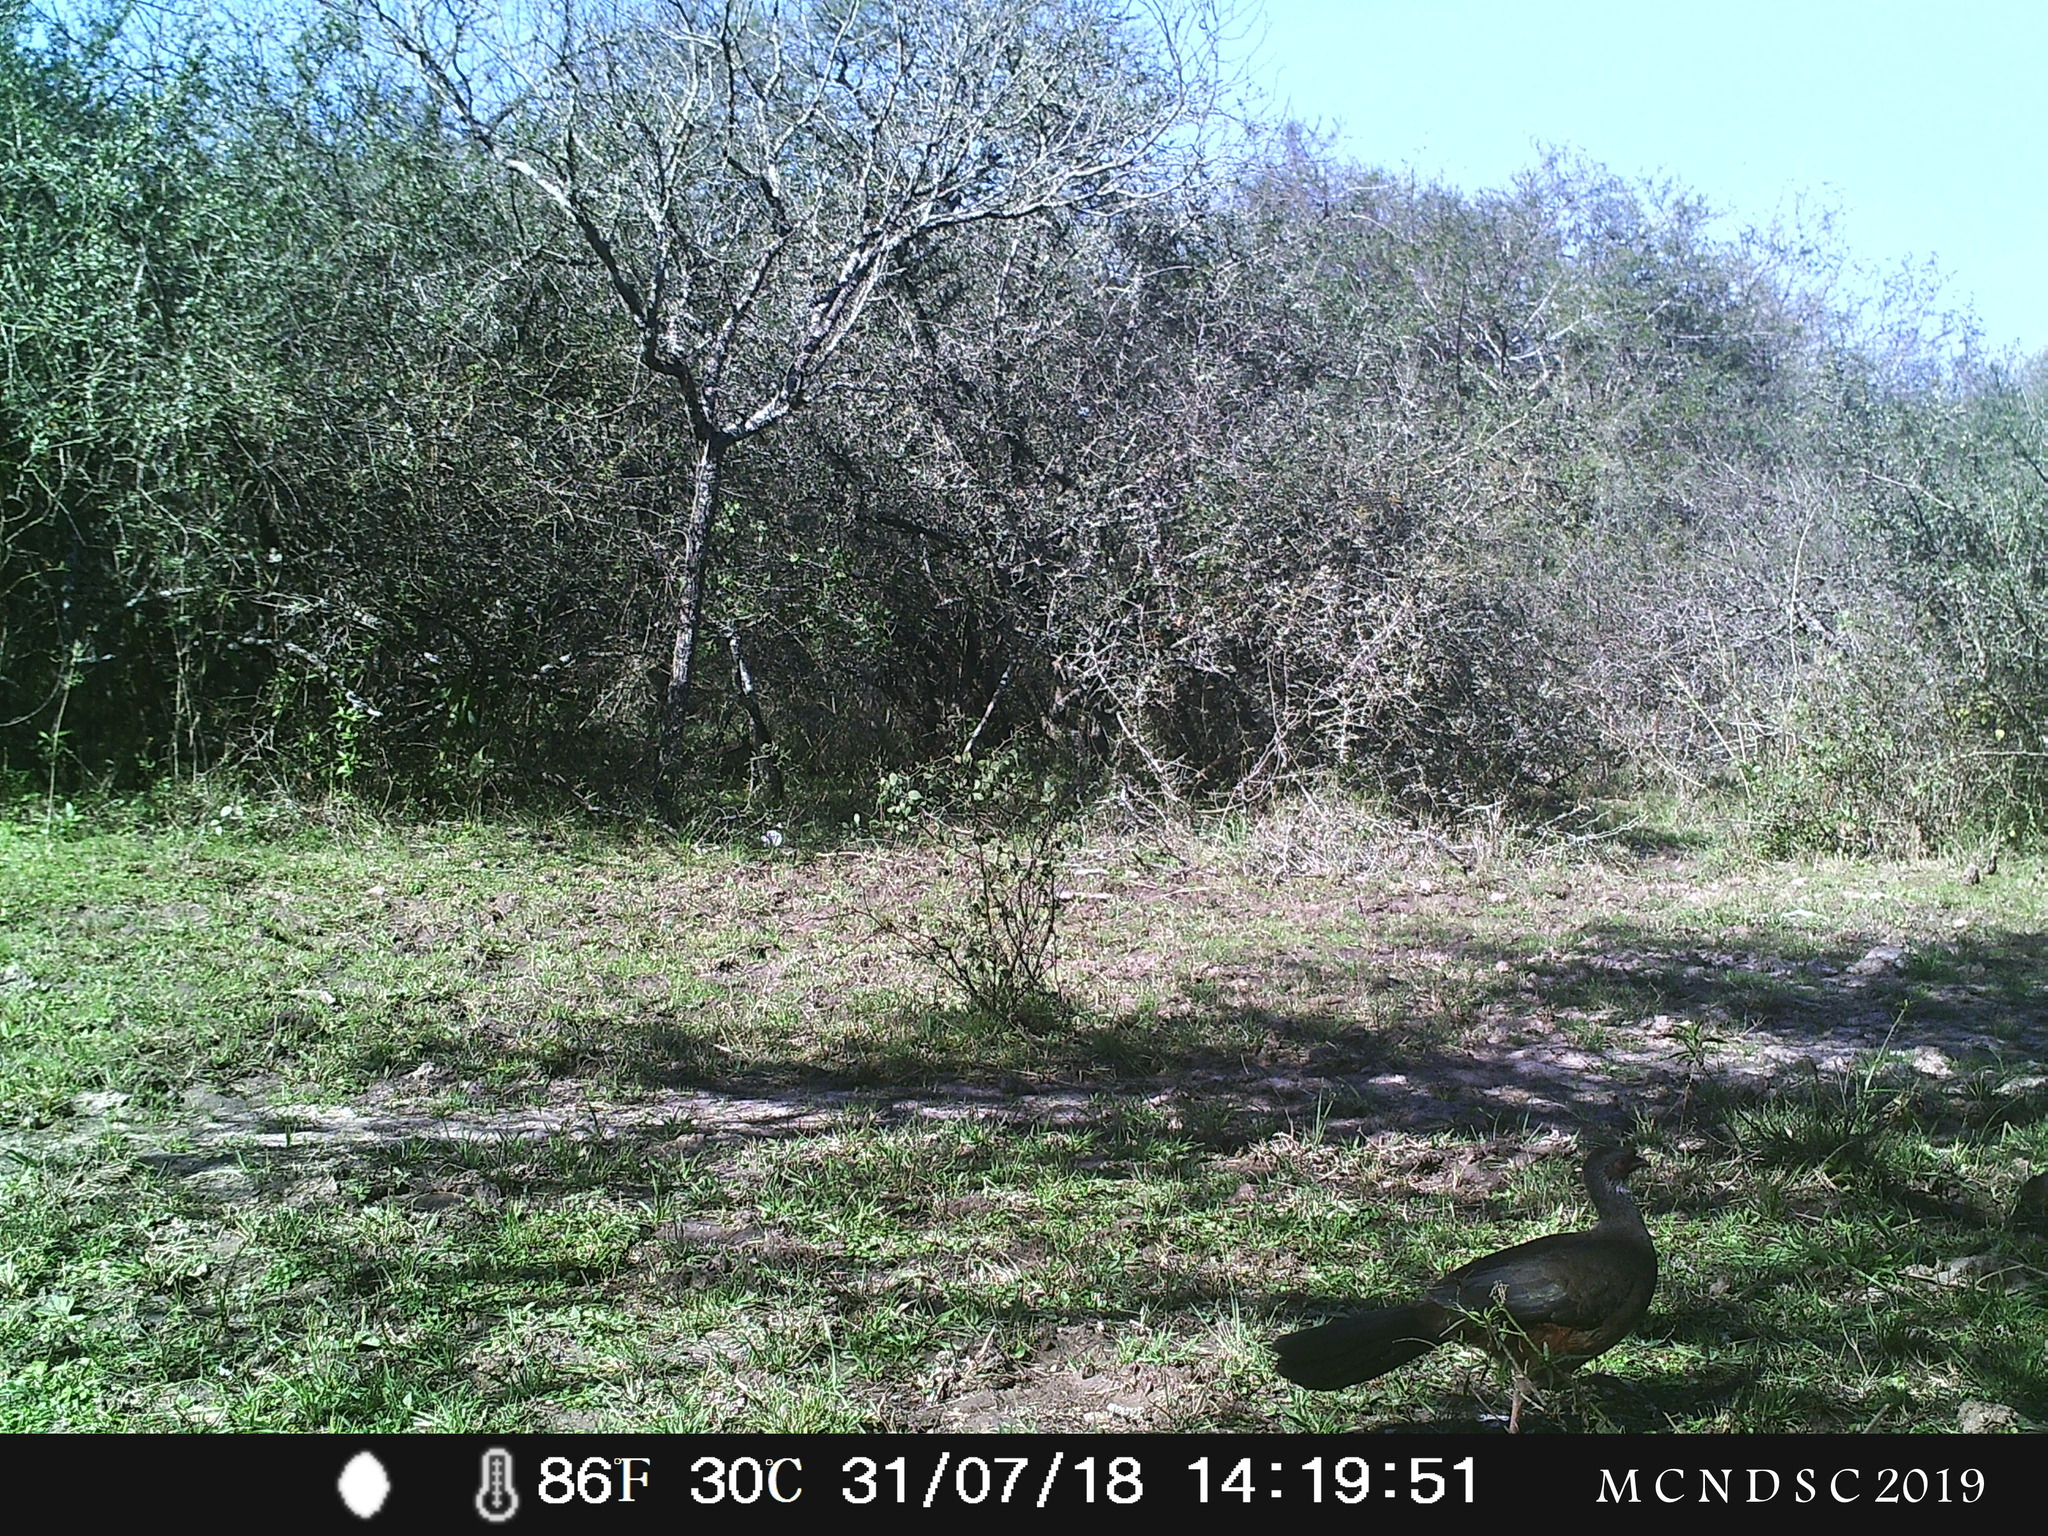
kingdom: Animalia
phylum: Chordata
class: Aves
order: Galliformes
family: Cracidae
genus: Ortalis
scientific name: Ortalis canicollis
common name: Chaco chachalaca
